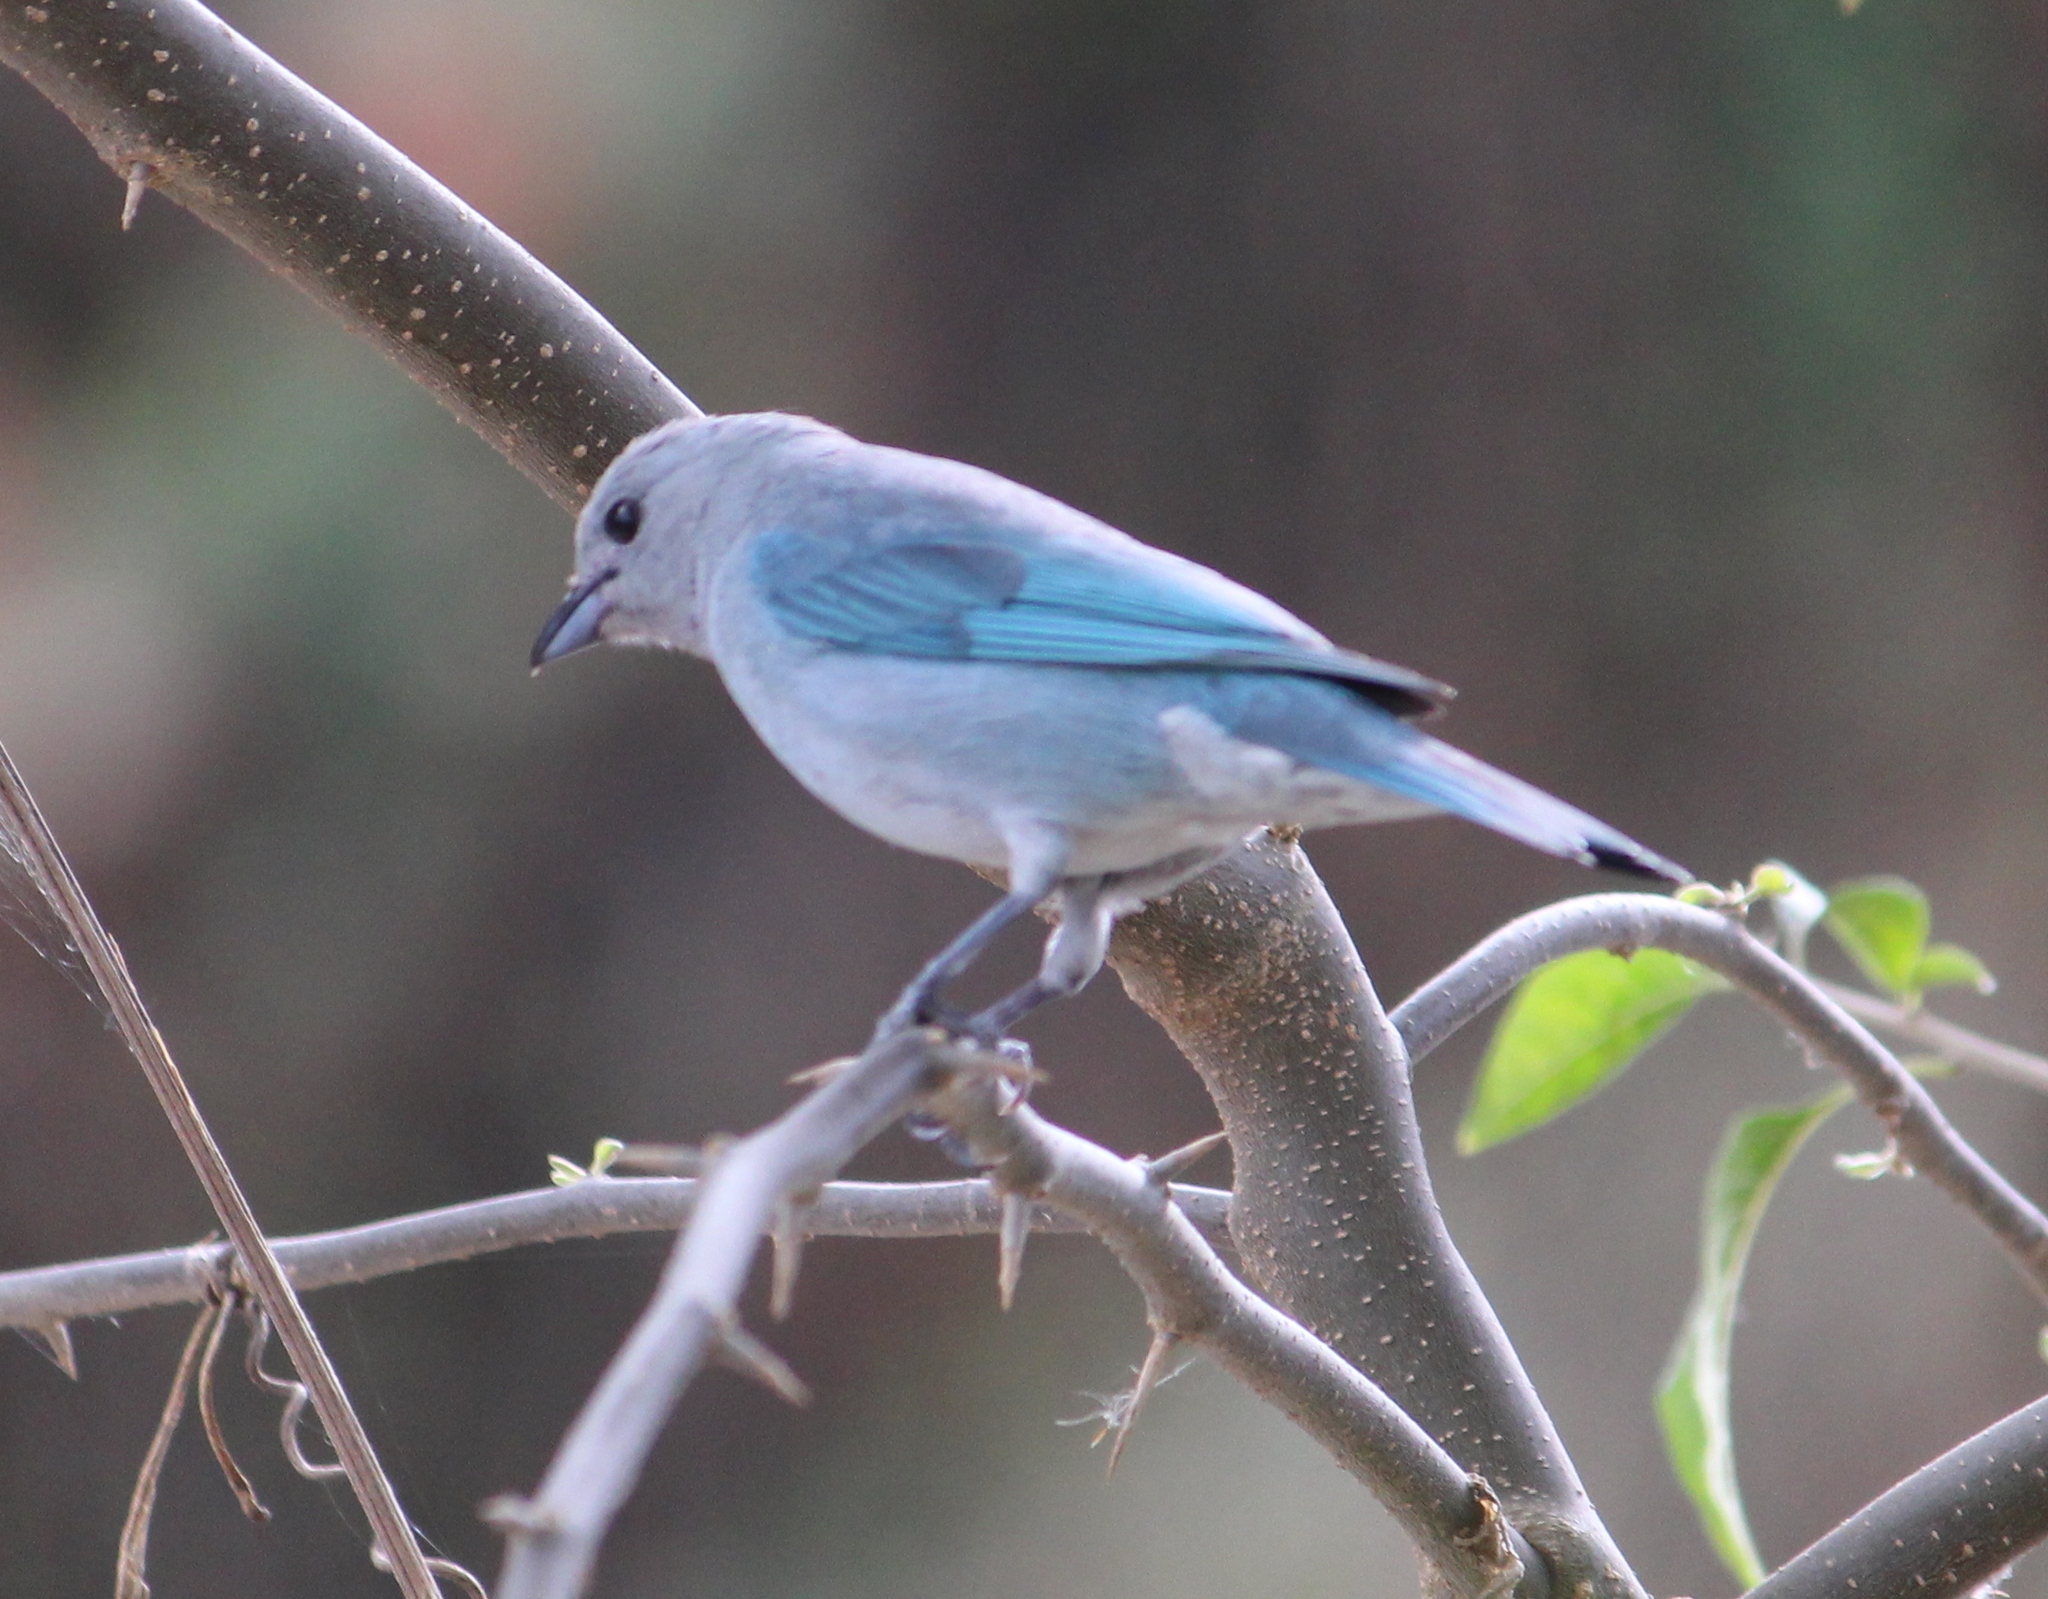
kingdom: Animalia
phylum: Chordata
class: Aves
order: Passeriformes
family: Thraupidae
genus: Thraupis
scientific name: Thraupis sayaca
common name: Sayaca tanager
